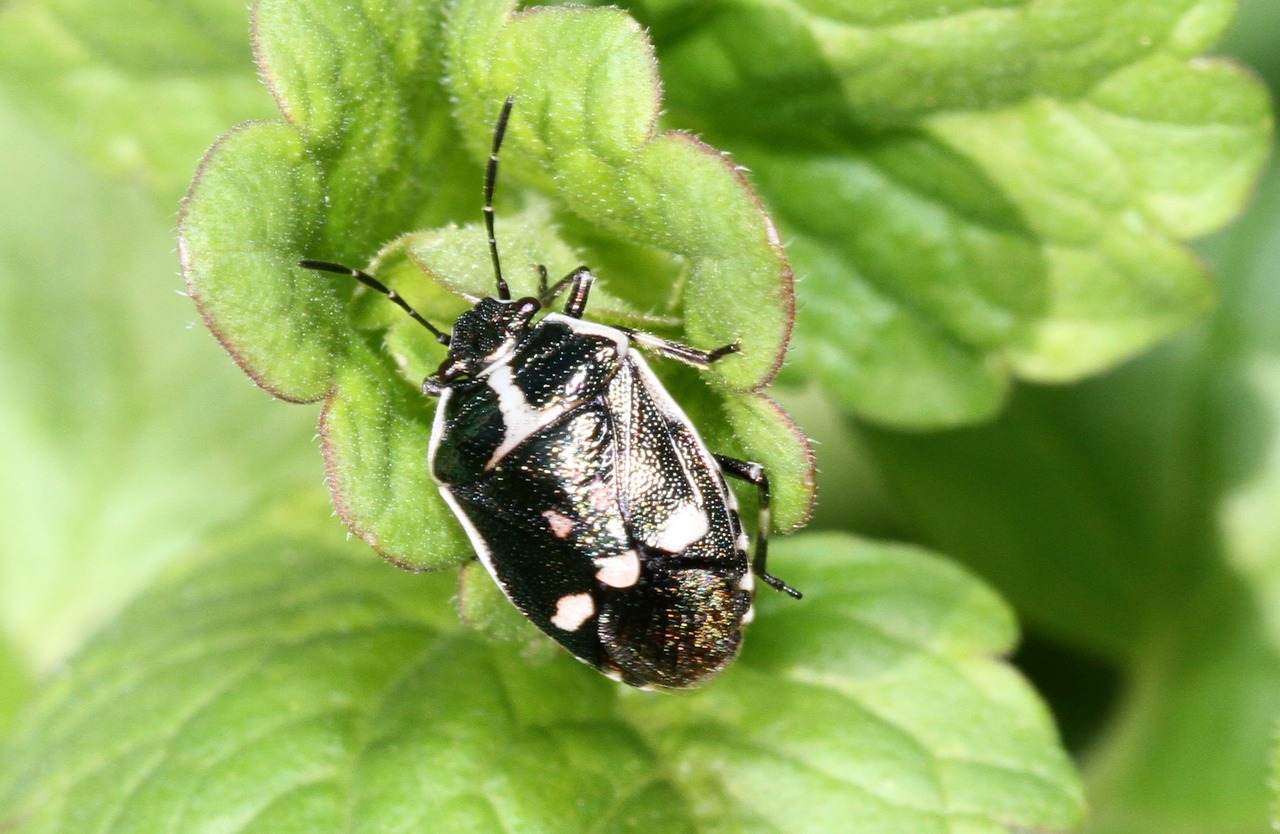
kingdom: Animalia
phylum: Arthropoda
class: Insecta
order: Hemiptera
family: Pentatomidae
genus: Eurydema
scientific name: Eurydema oleracea
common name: Cabbage bug
